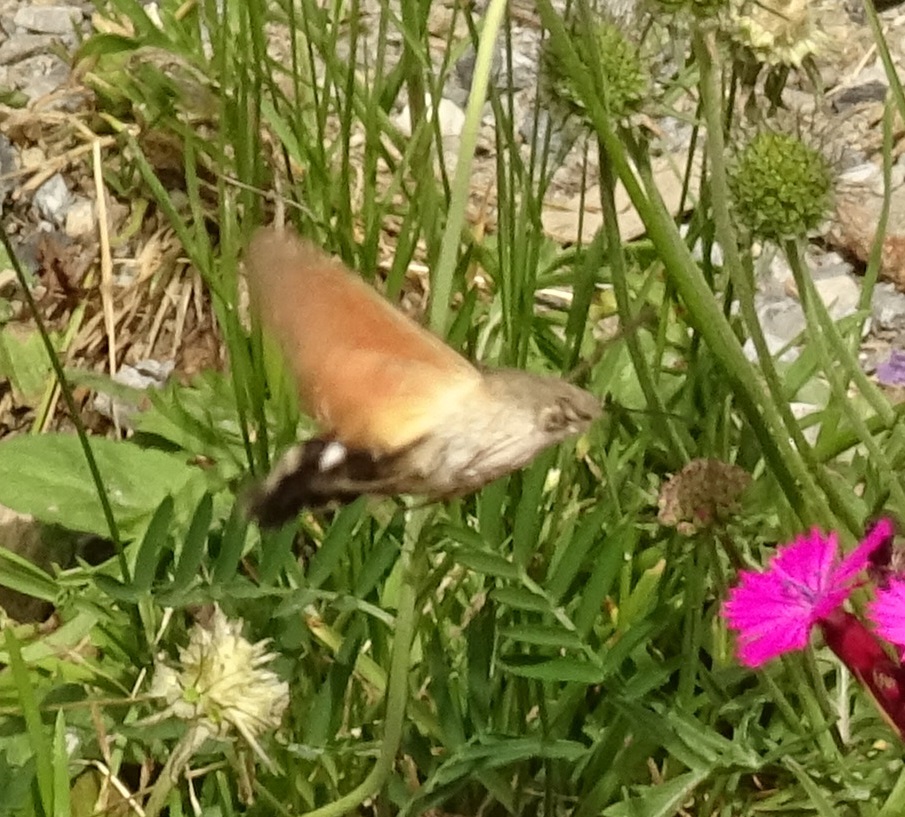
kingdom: Animalia
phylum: Arthropoda
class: Insecta
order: Lepidoptera
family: Sphingidae
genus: Macroglossum
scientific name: Macroglossum stellatarum
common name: Humming-bird hawk-moth
